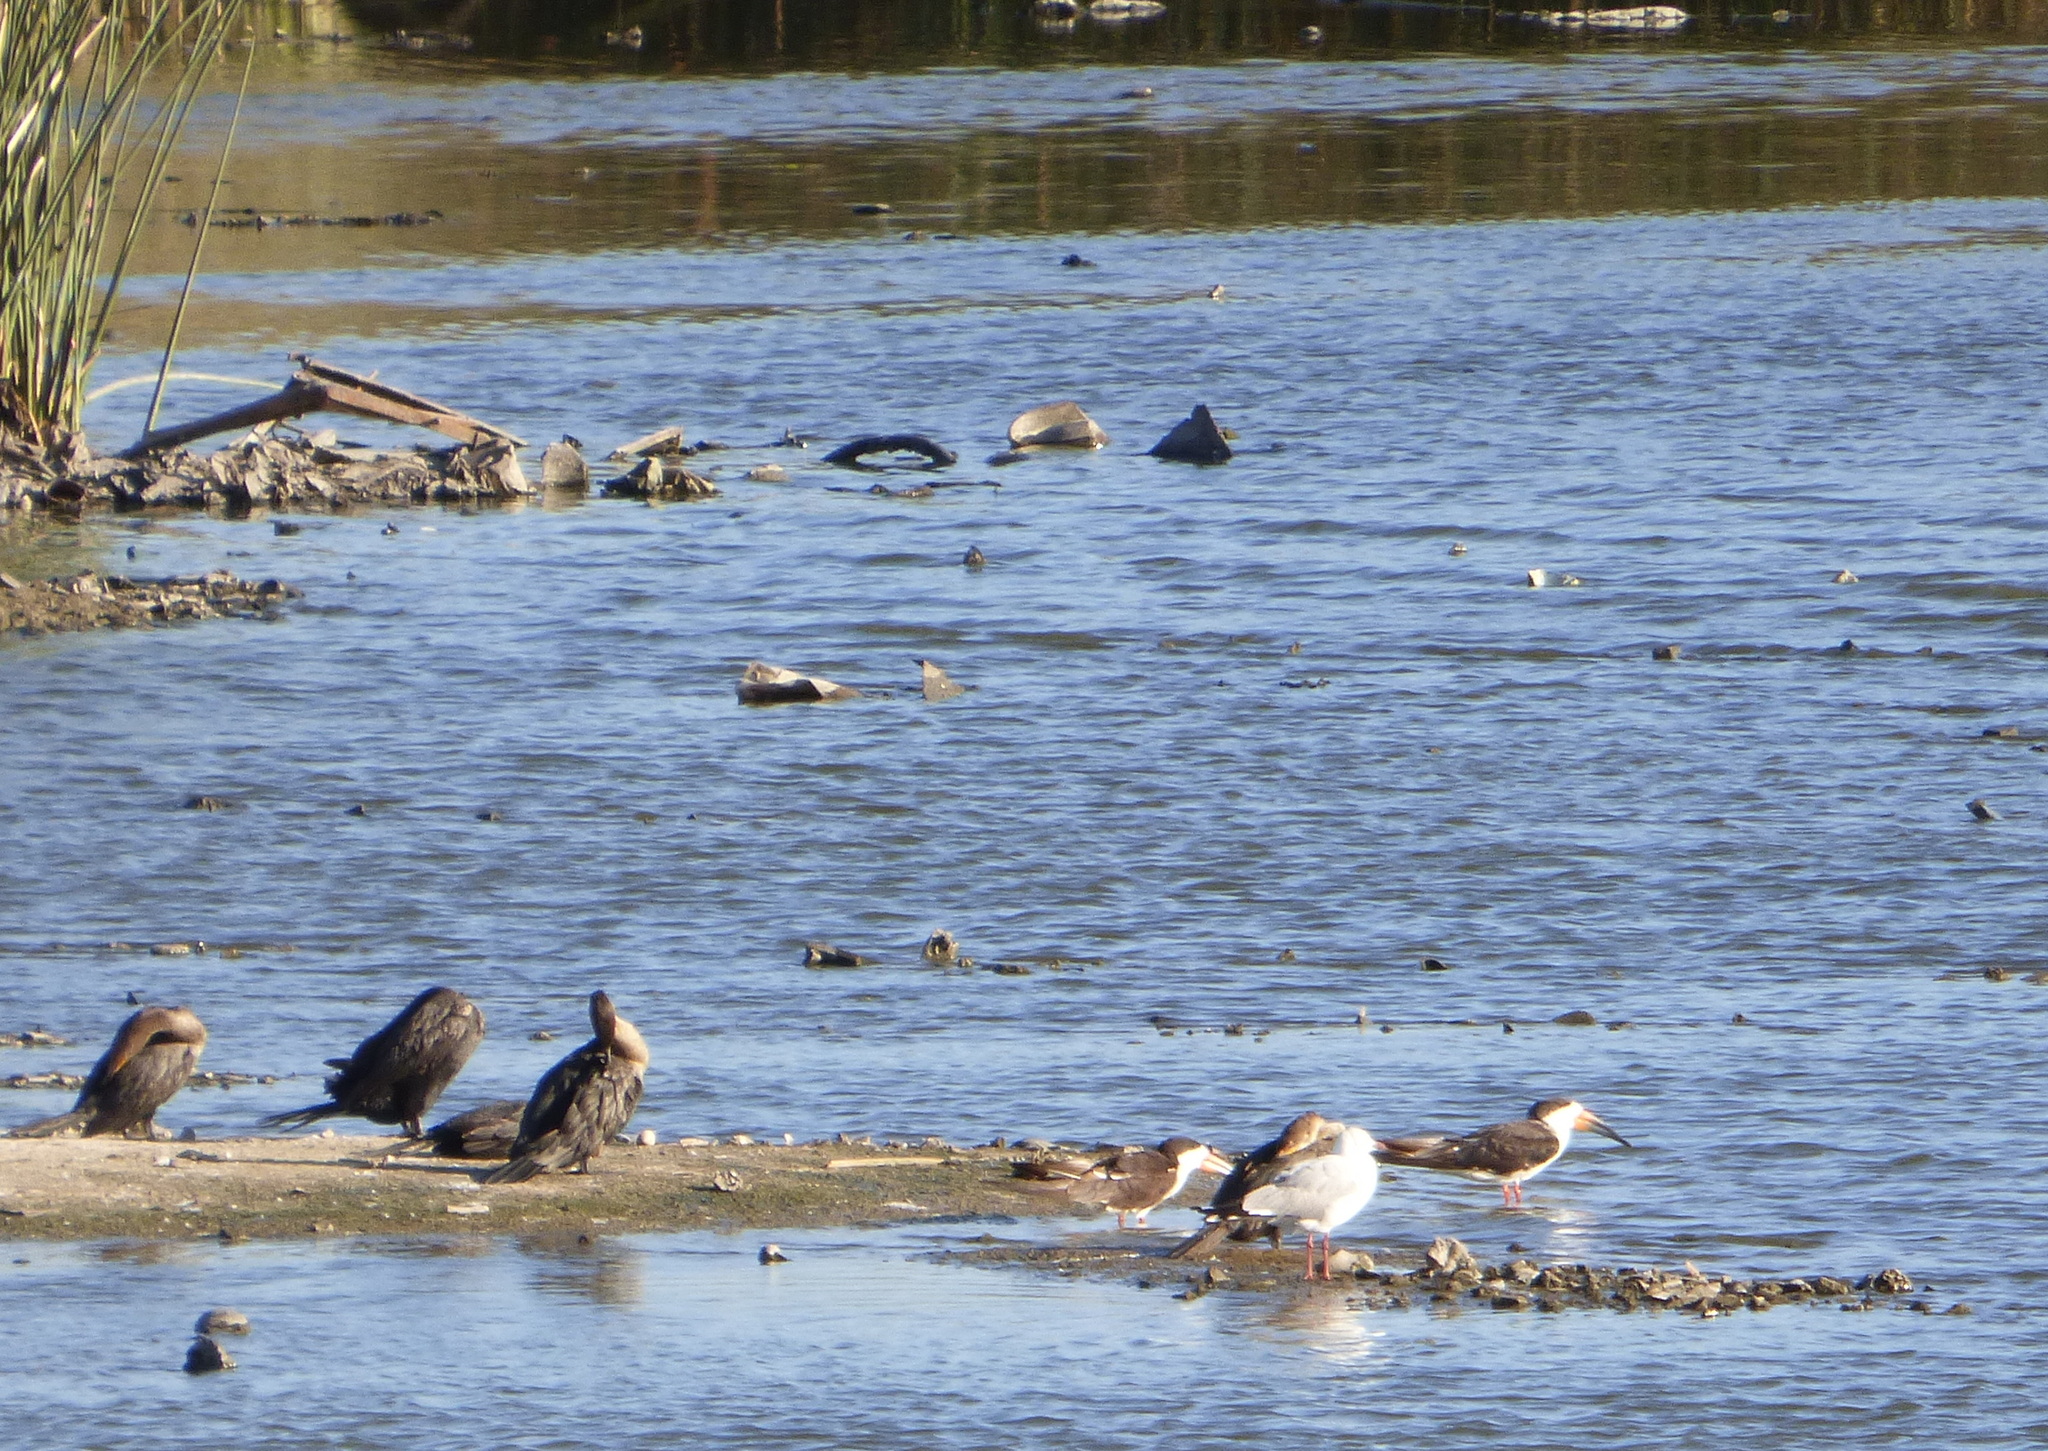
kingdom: Animalia
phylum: Chordata
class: Aves
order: Suliformes
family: Phalacrocoracidae
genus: Phalacrocorax
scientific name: Phalacrocorax brasilianus
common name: Neotropic cormorant
